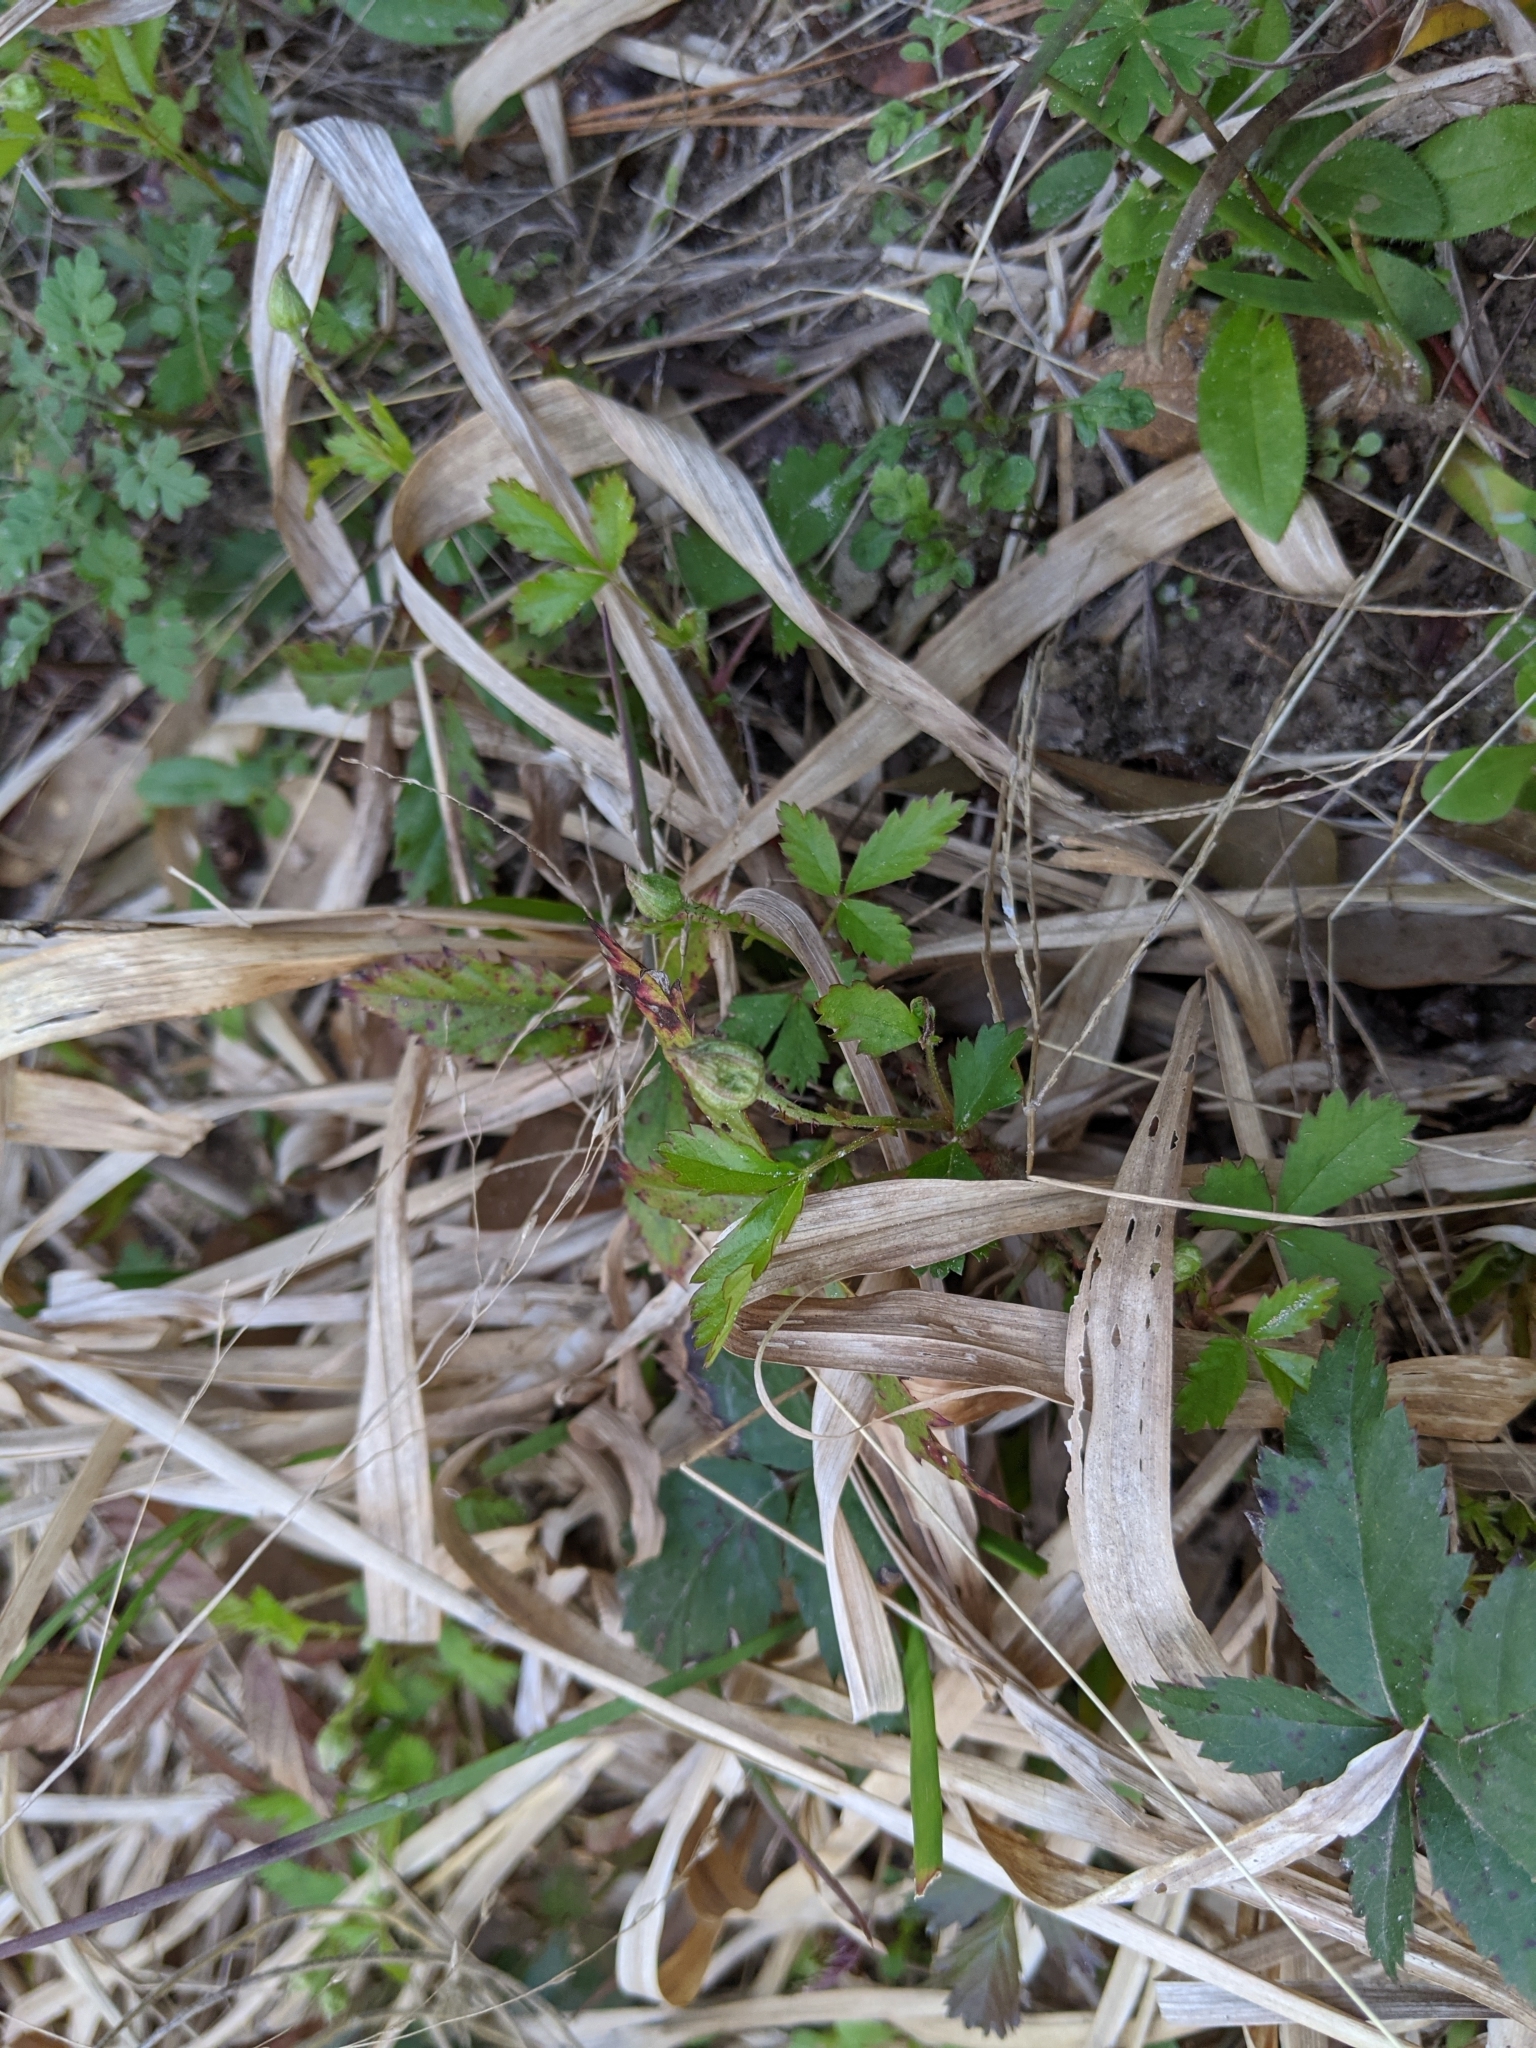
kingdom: Plantae
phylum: Tracheophyta
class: Magnoliopsida
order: Rosales
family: Rosaceae
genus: Rubus
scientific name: Rubus trivialis
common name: Southern dewberry
